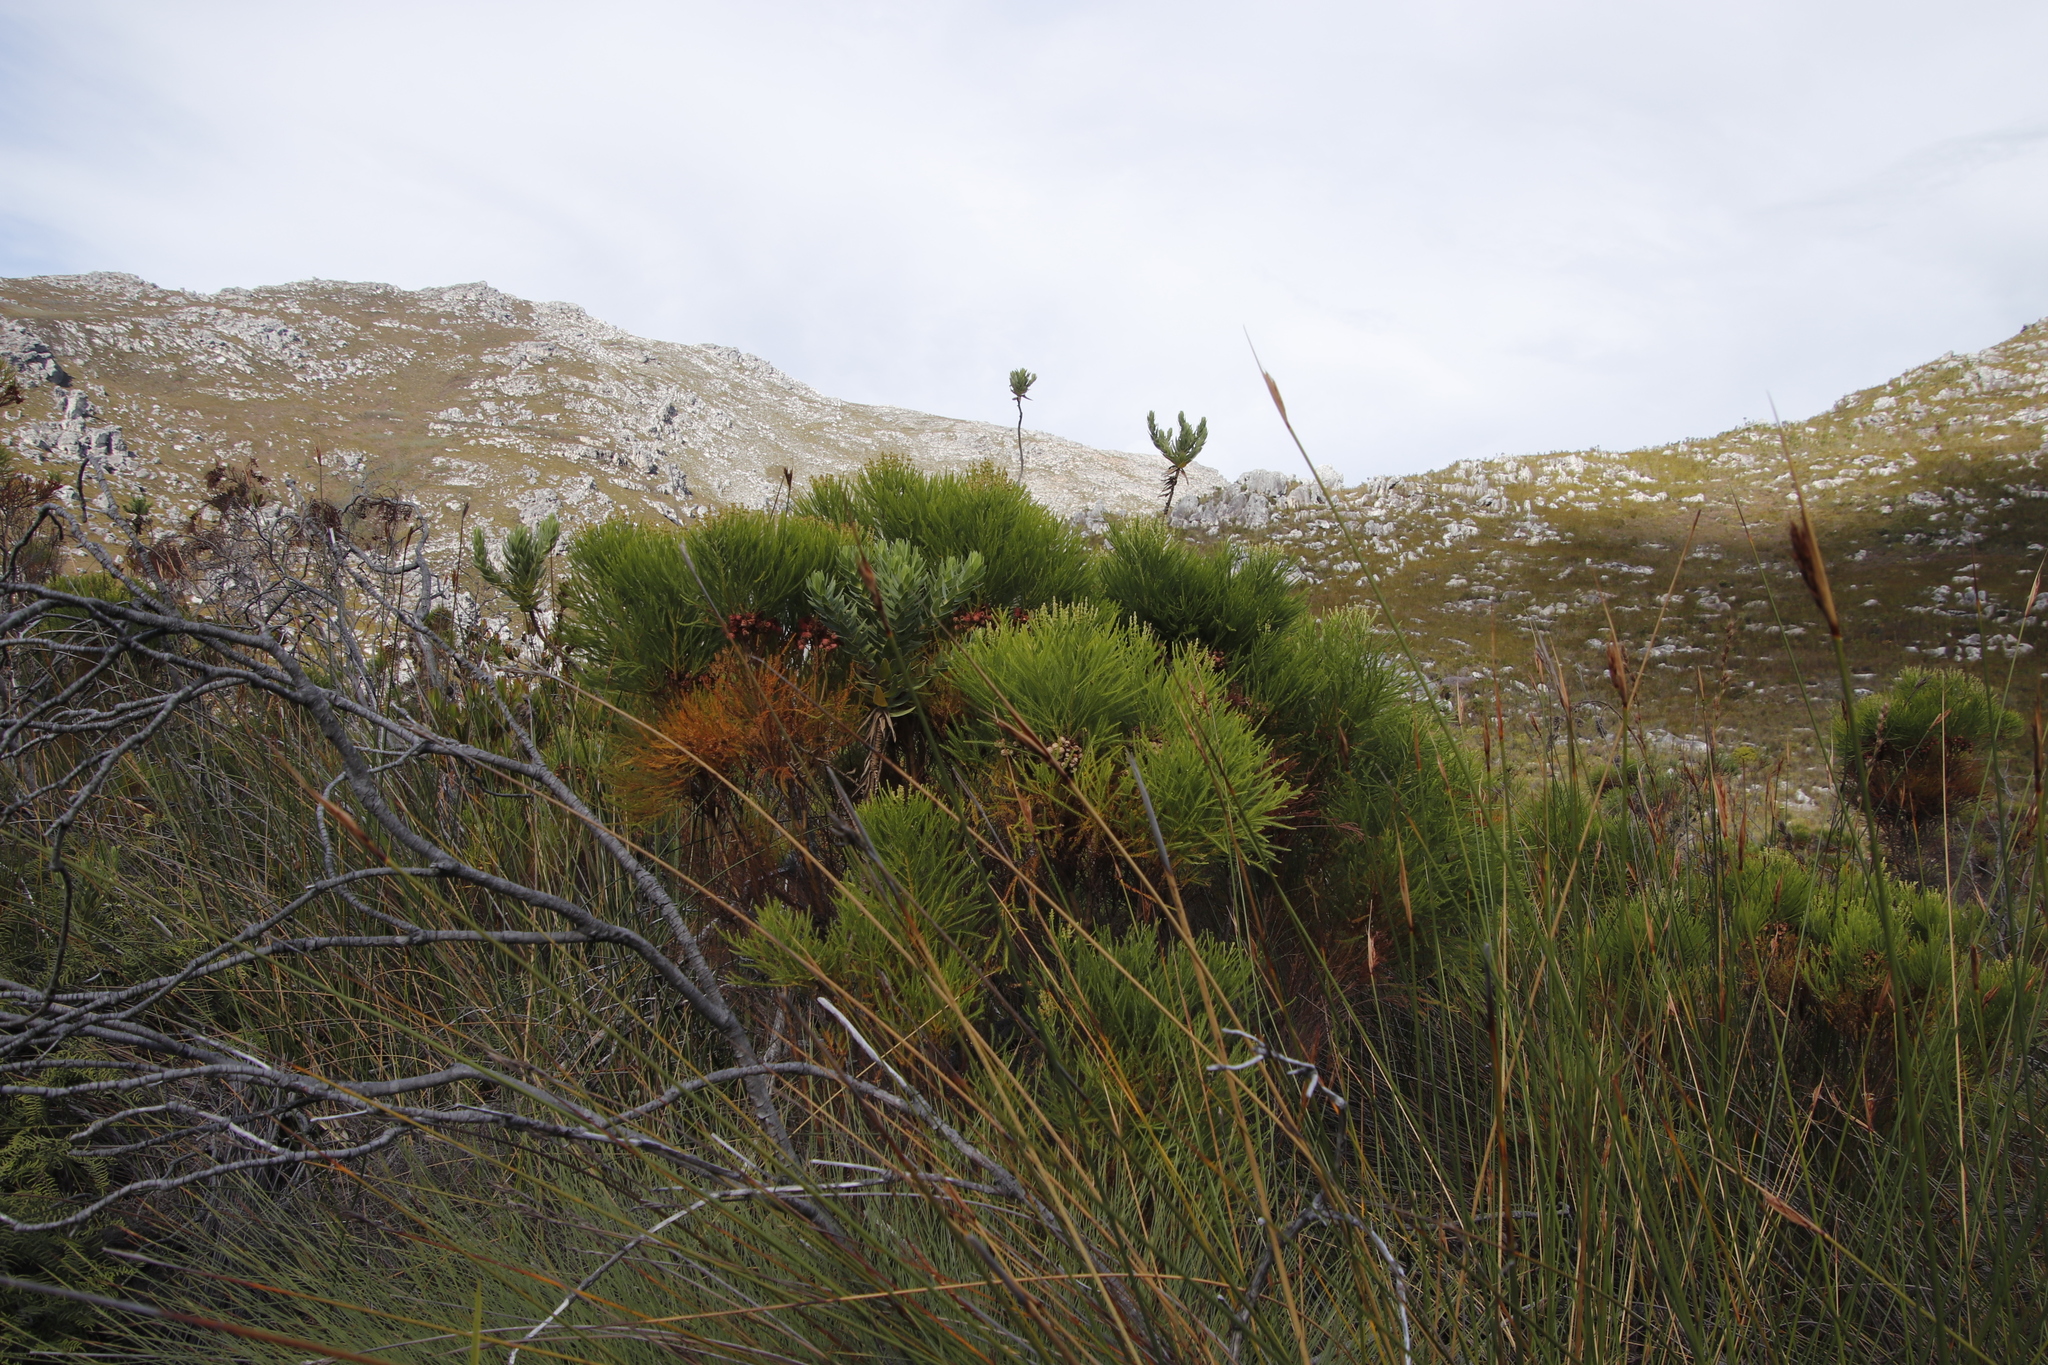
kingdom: Plantae
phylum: Tracheophyta
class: Magnoliopsida
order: Bruniales
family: Bruniaceae
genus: Berzelia
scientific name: Berzelia lanuginosa
